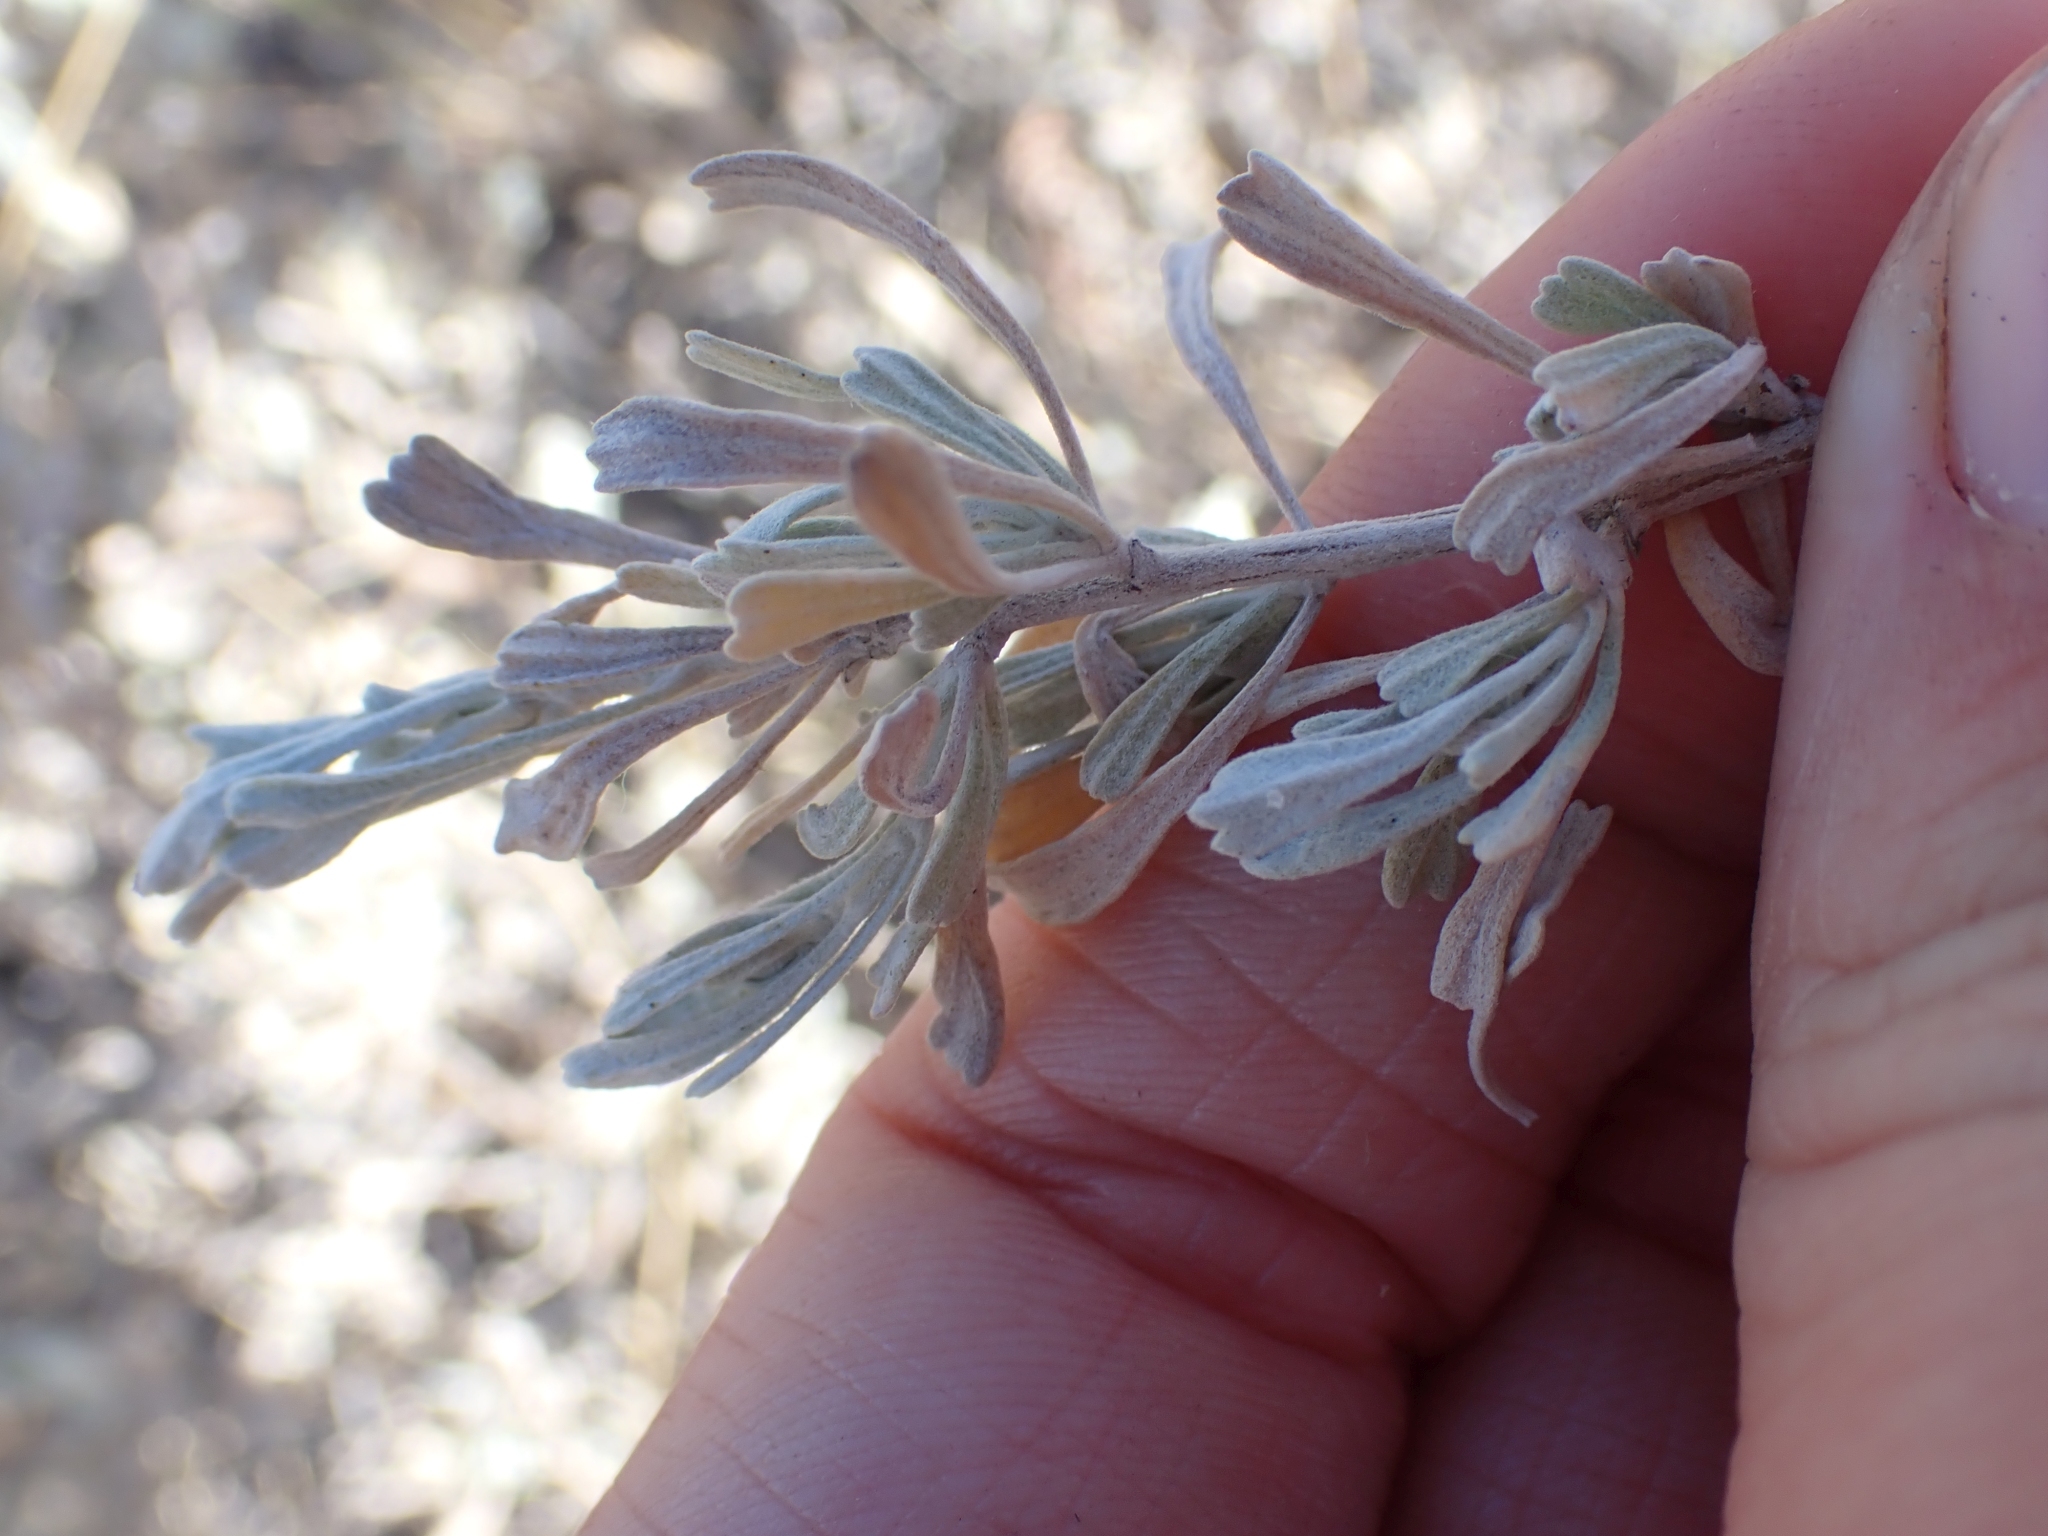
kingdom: Plantae
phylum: Tracheophyta
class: Magnoliopsida
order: Asterales
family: Asteraceae
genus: Artemisia
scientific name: Artemisia tridentata
